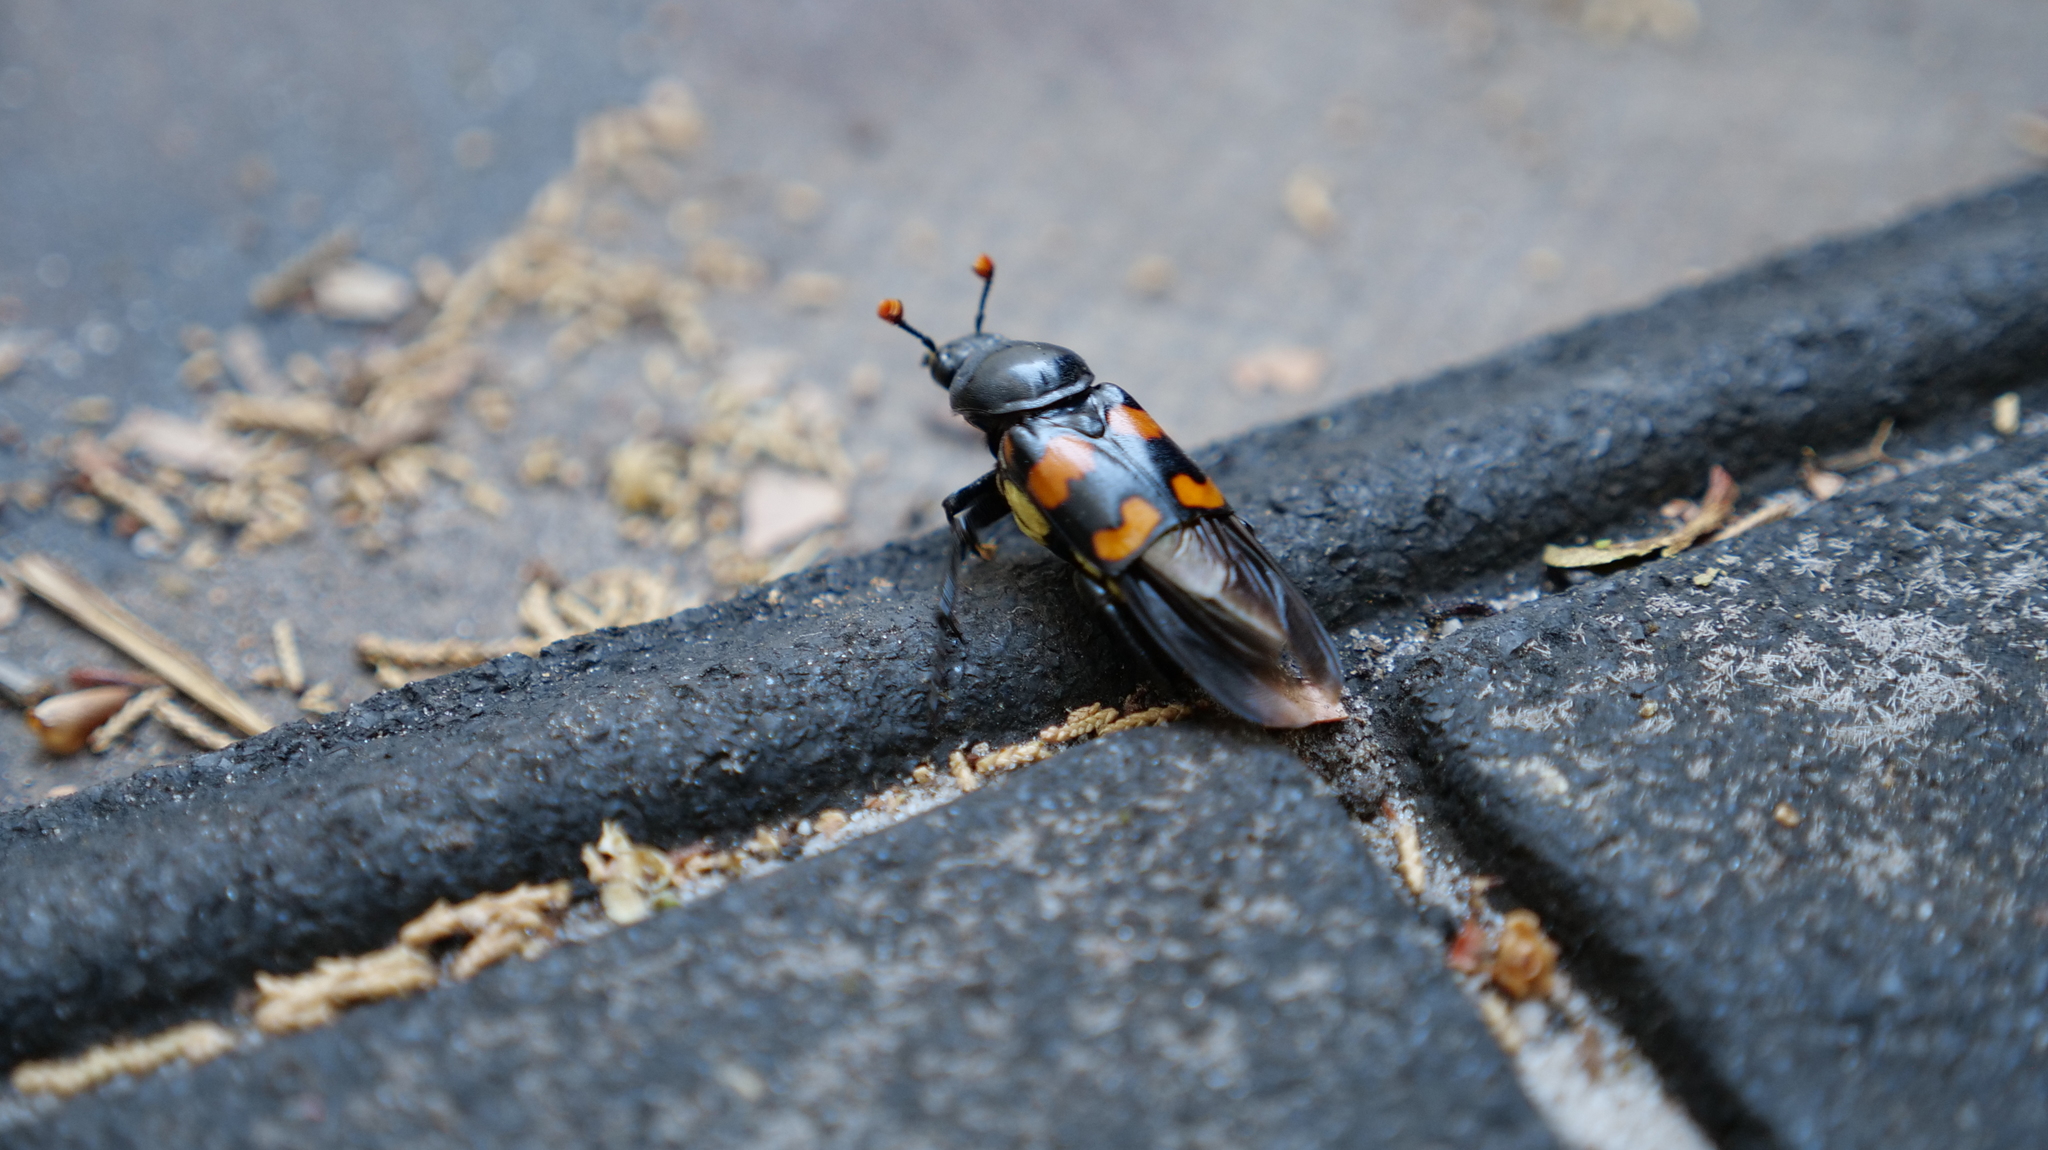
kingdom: Animalia
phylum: Arthropoda
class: Insecta
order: Coleoptera
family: Staphylinidae
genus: Nicrophorus
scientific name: Nicrophorus carolinus
